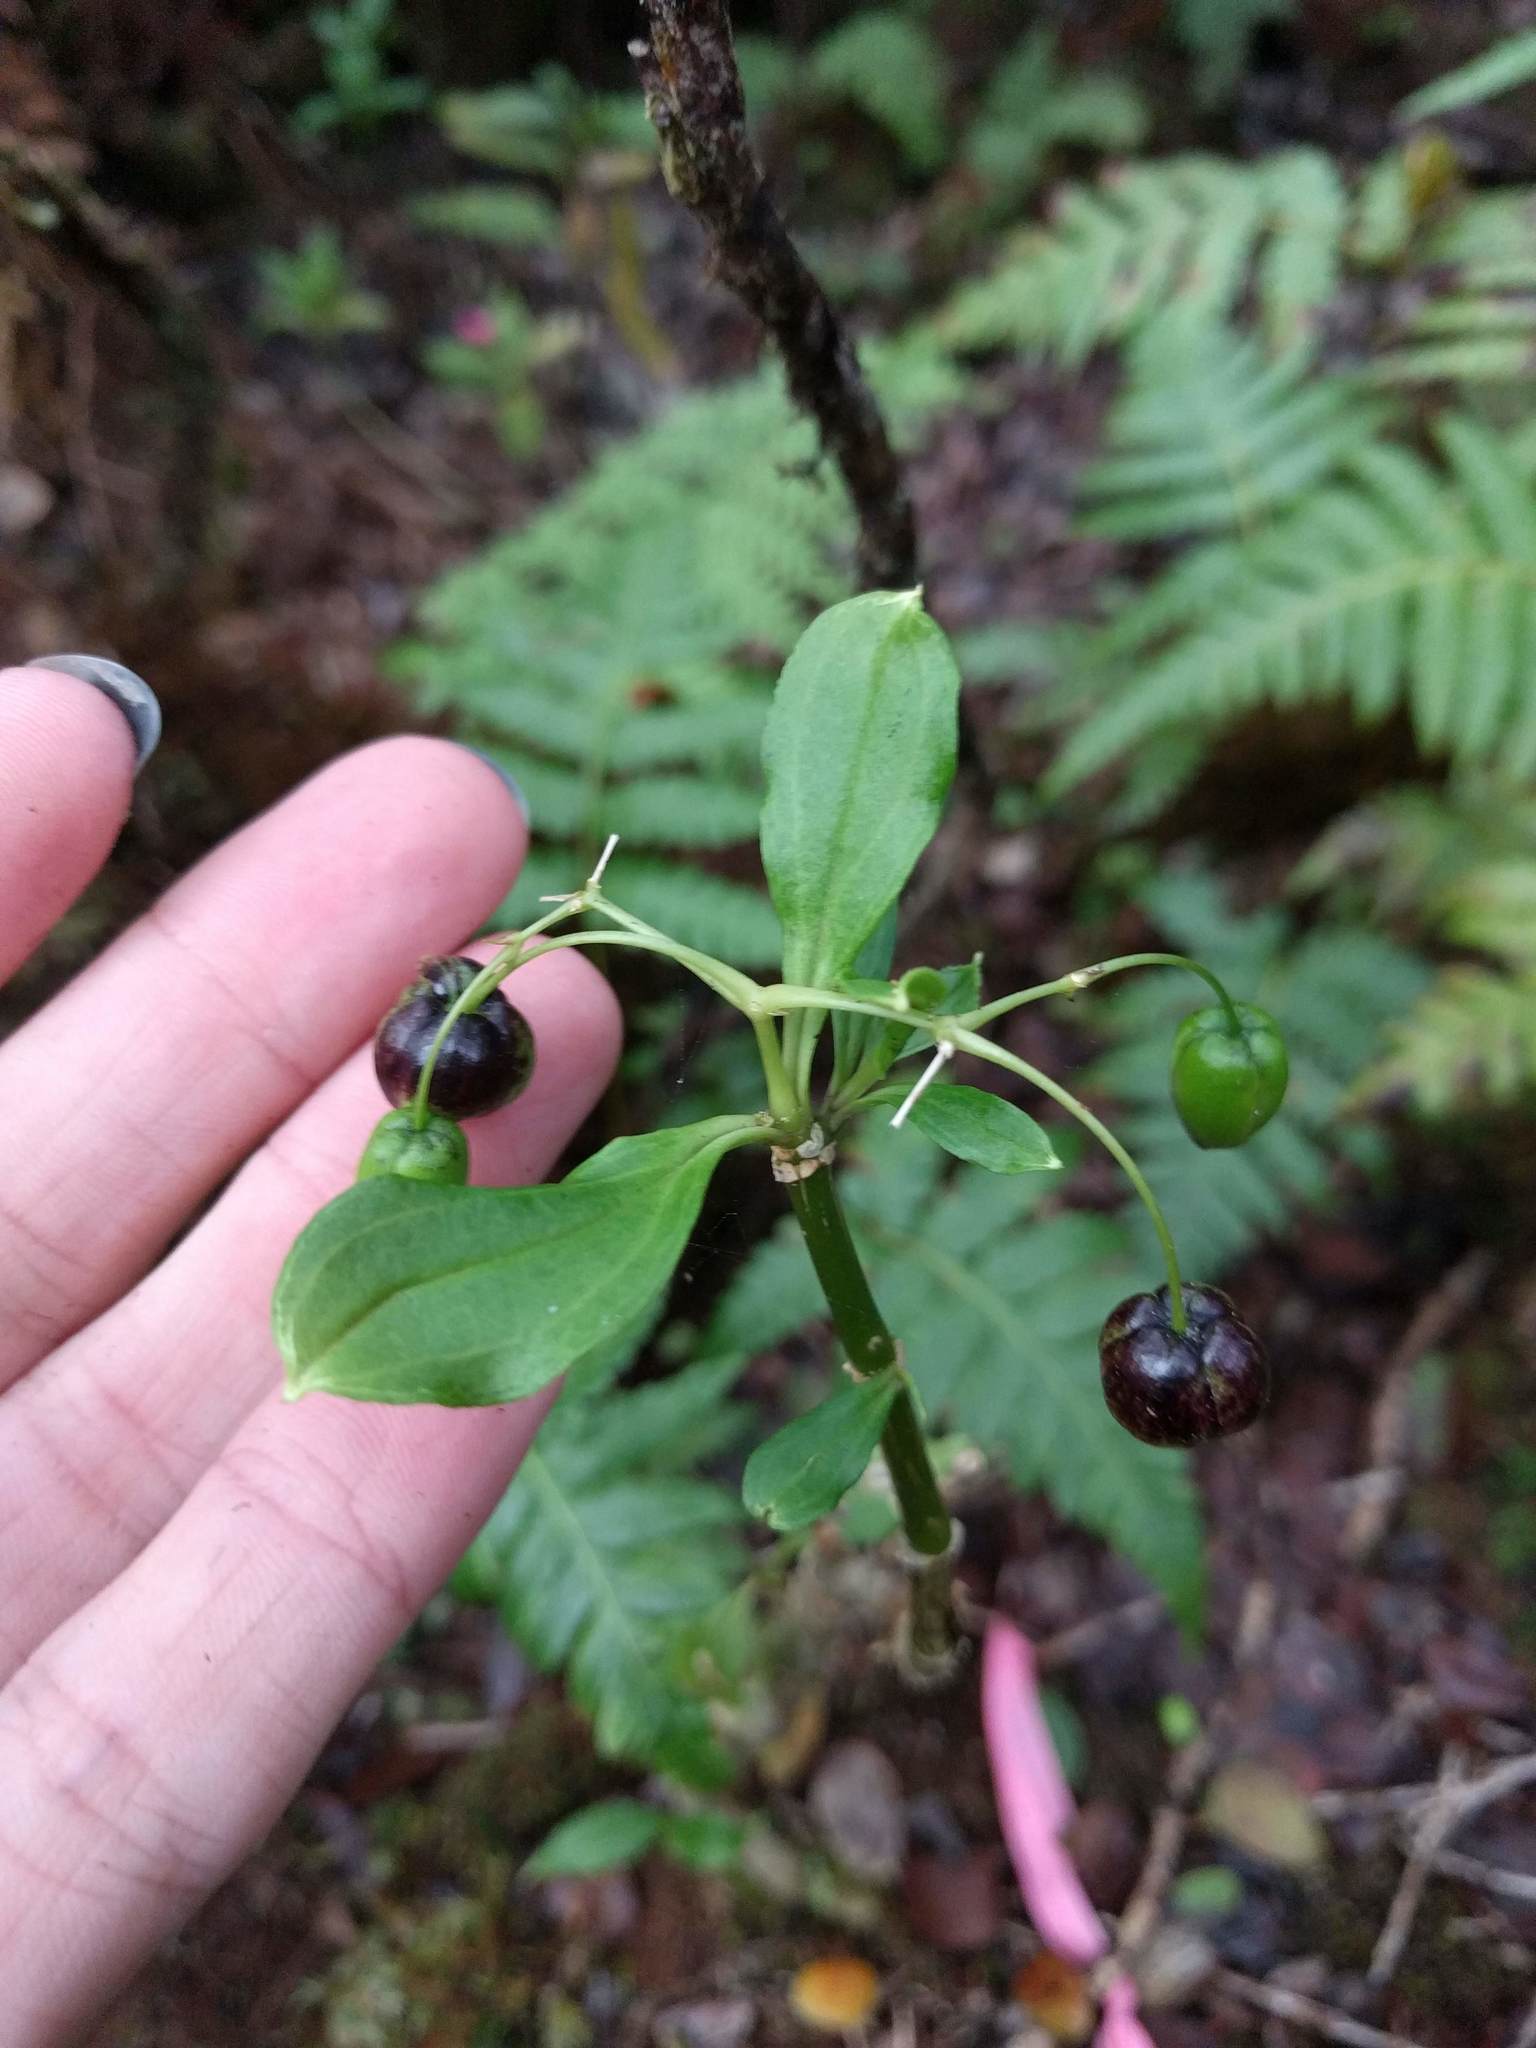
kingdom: Plantae
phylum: Tracheophyta
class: Magnoliopsida
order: Caryophyllales
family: Caryophyllaceae
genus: Schiedea
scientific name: Schiedea trinervis
